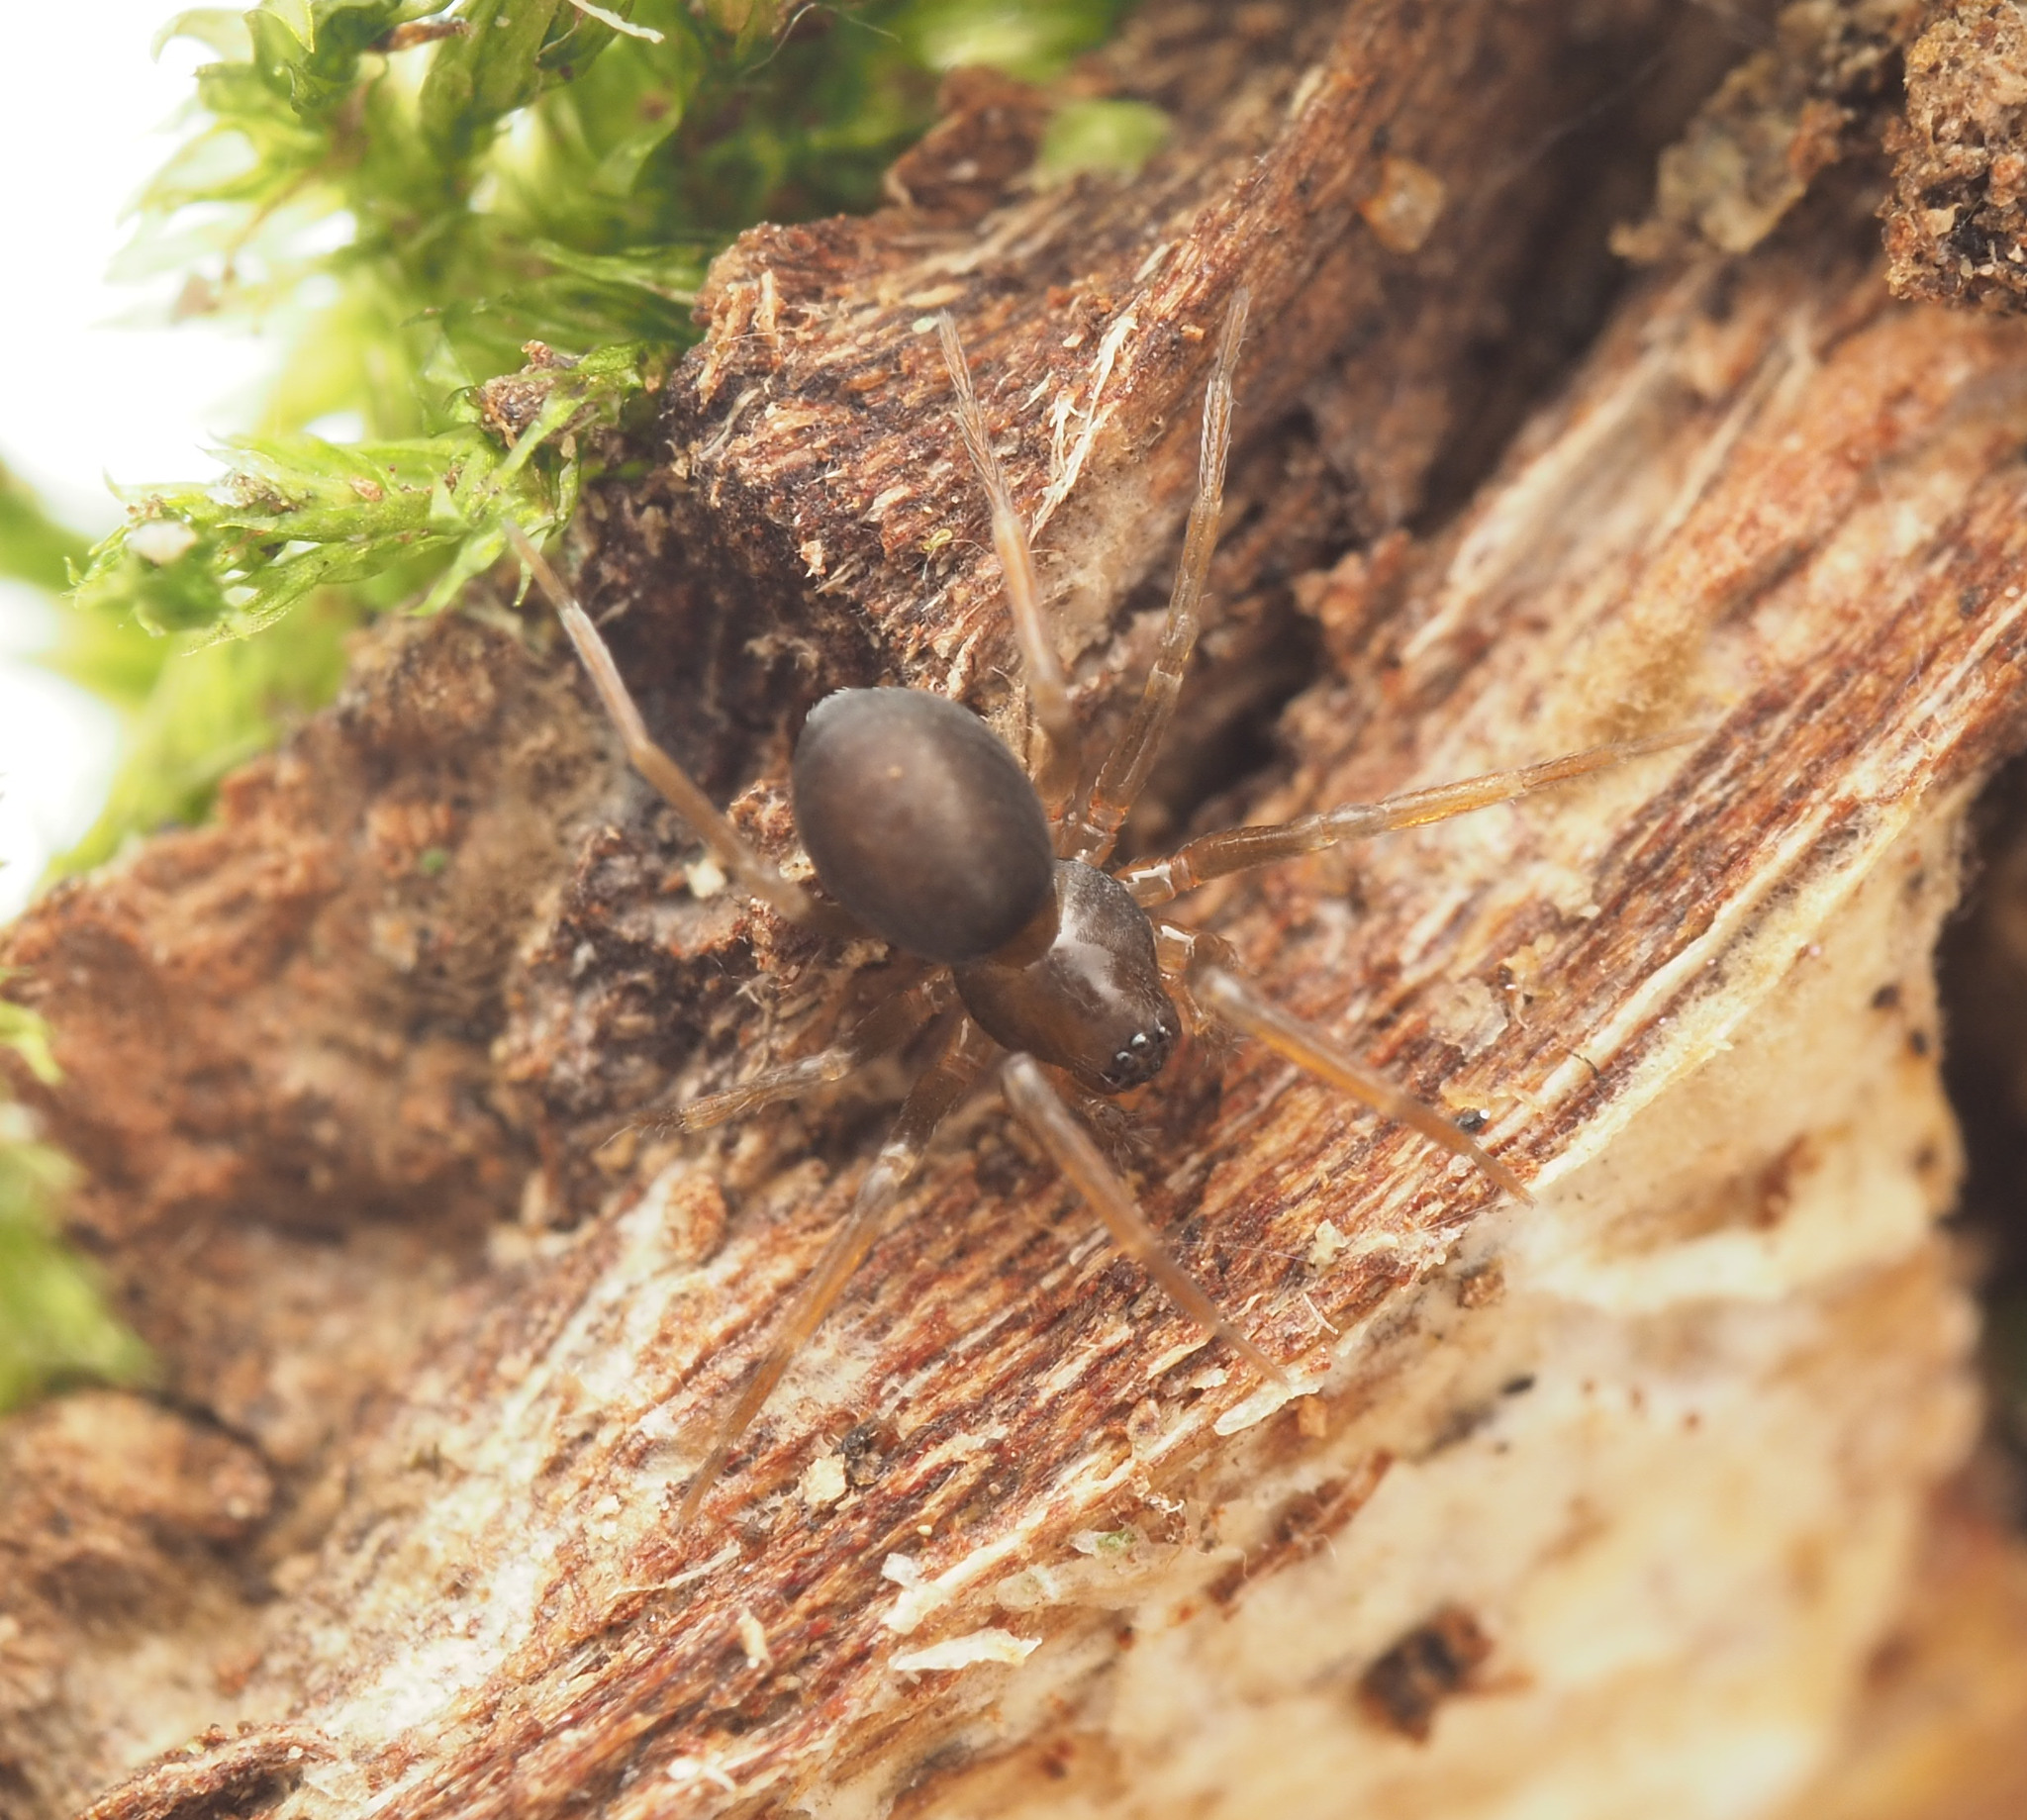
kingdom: Animalia
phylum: Arthropoda
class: Arachnida
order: Araneae
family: Toxopidae
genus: Midgee
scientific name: Midgee
